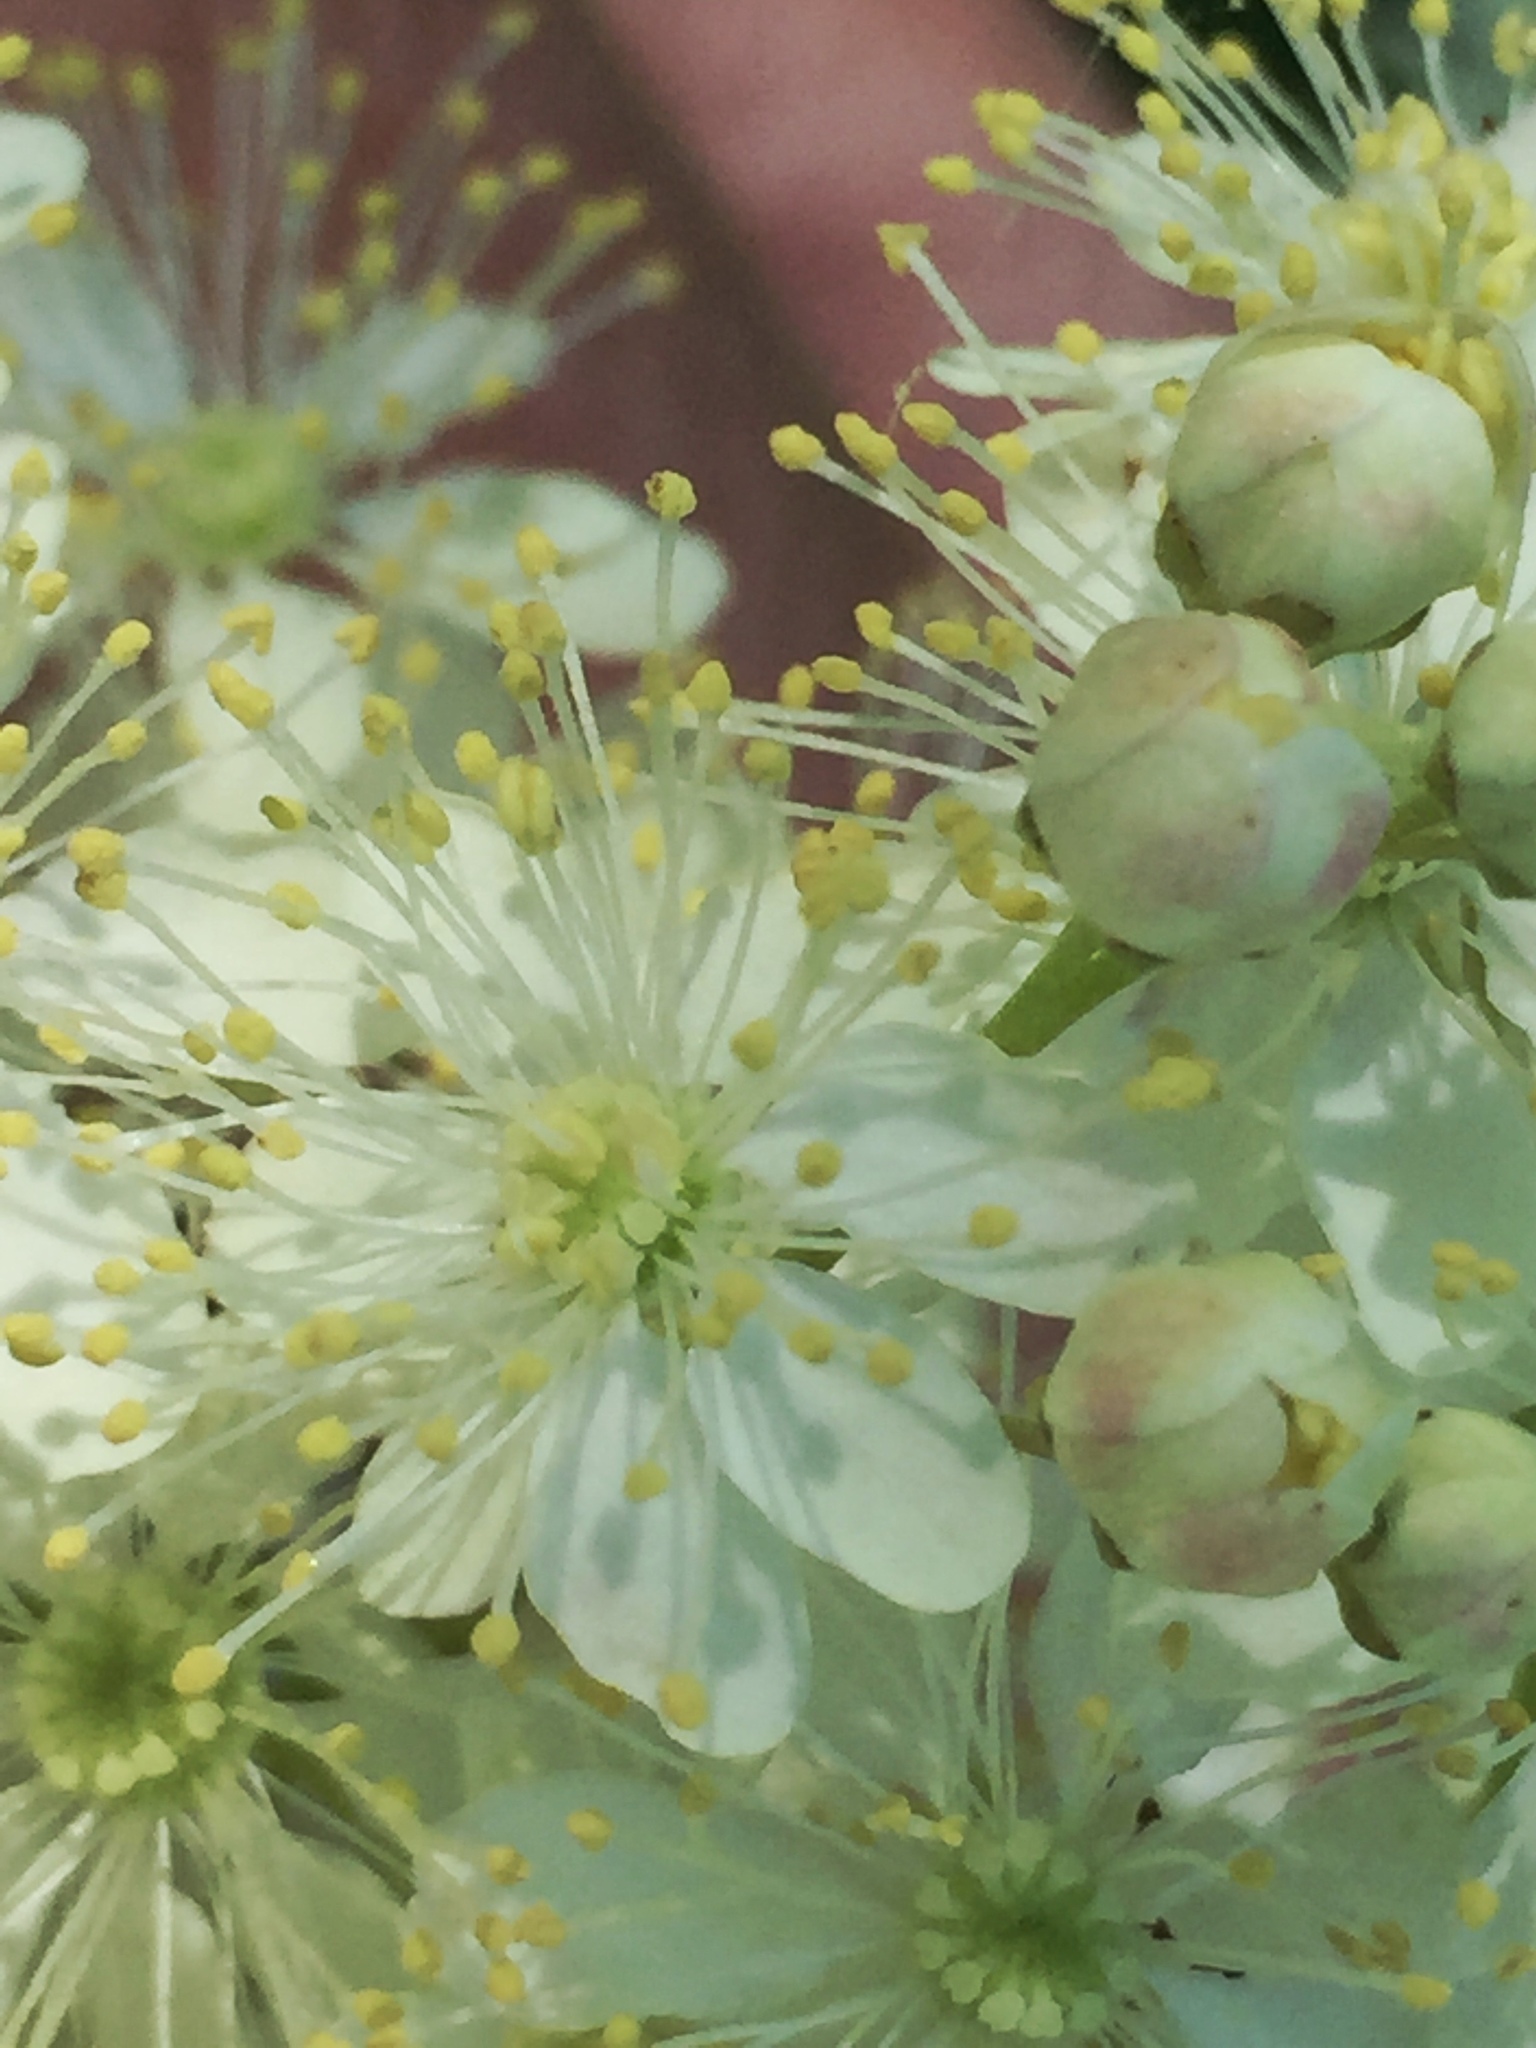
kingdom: Plantae
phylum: Tracheophyta
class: Magnoliopsida
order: Rosales
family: Rosaceae
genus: Filipendula
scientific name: Filipendula vulgaris
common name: Dropwort
